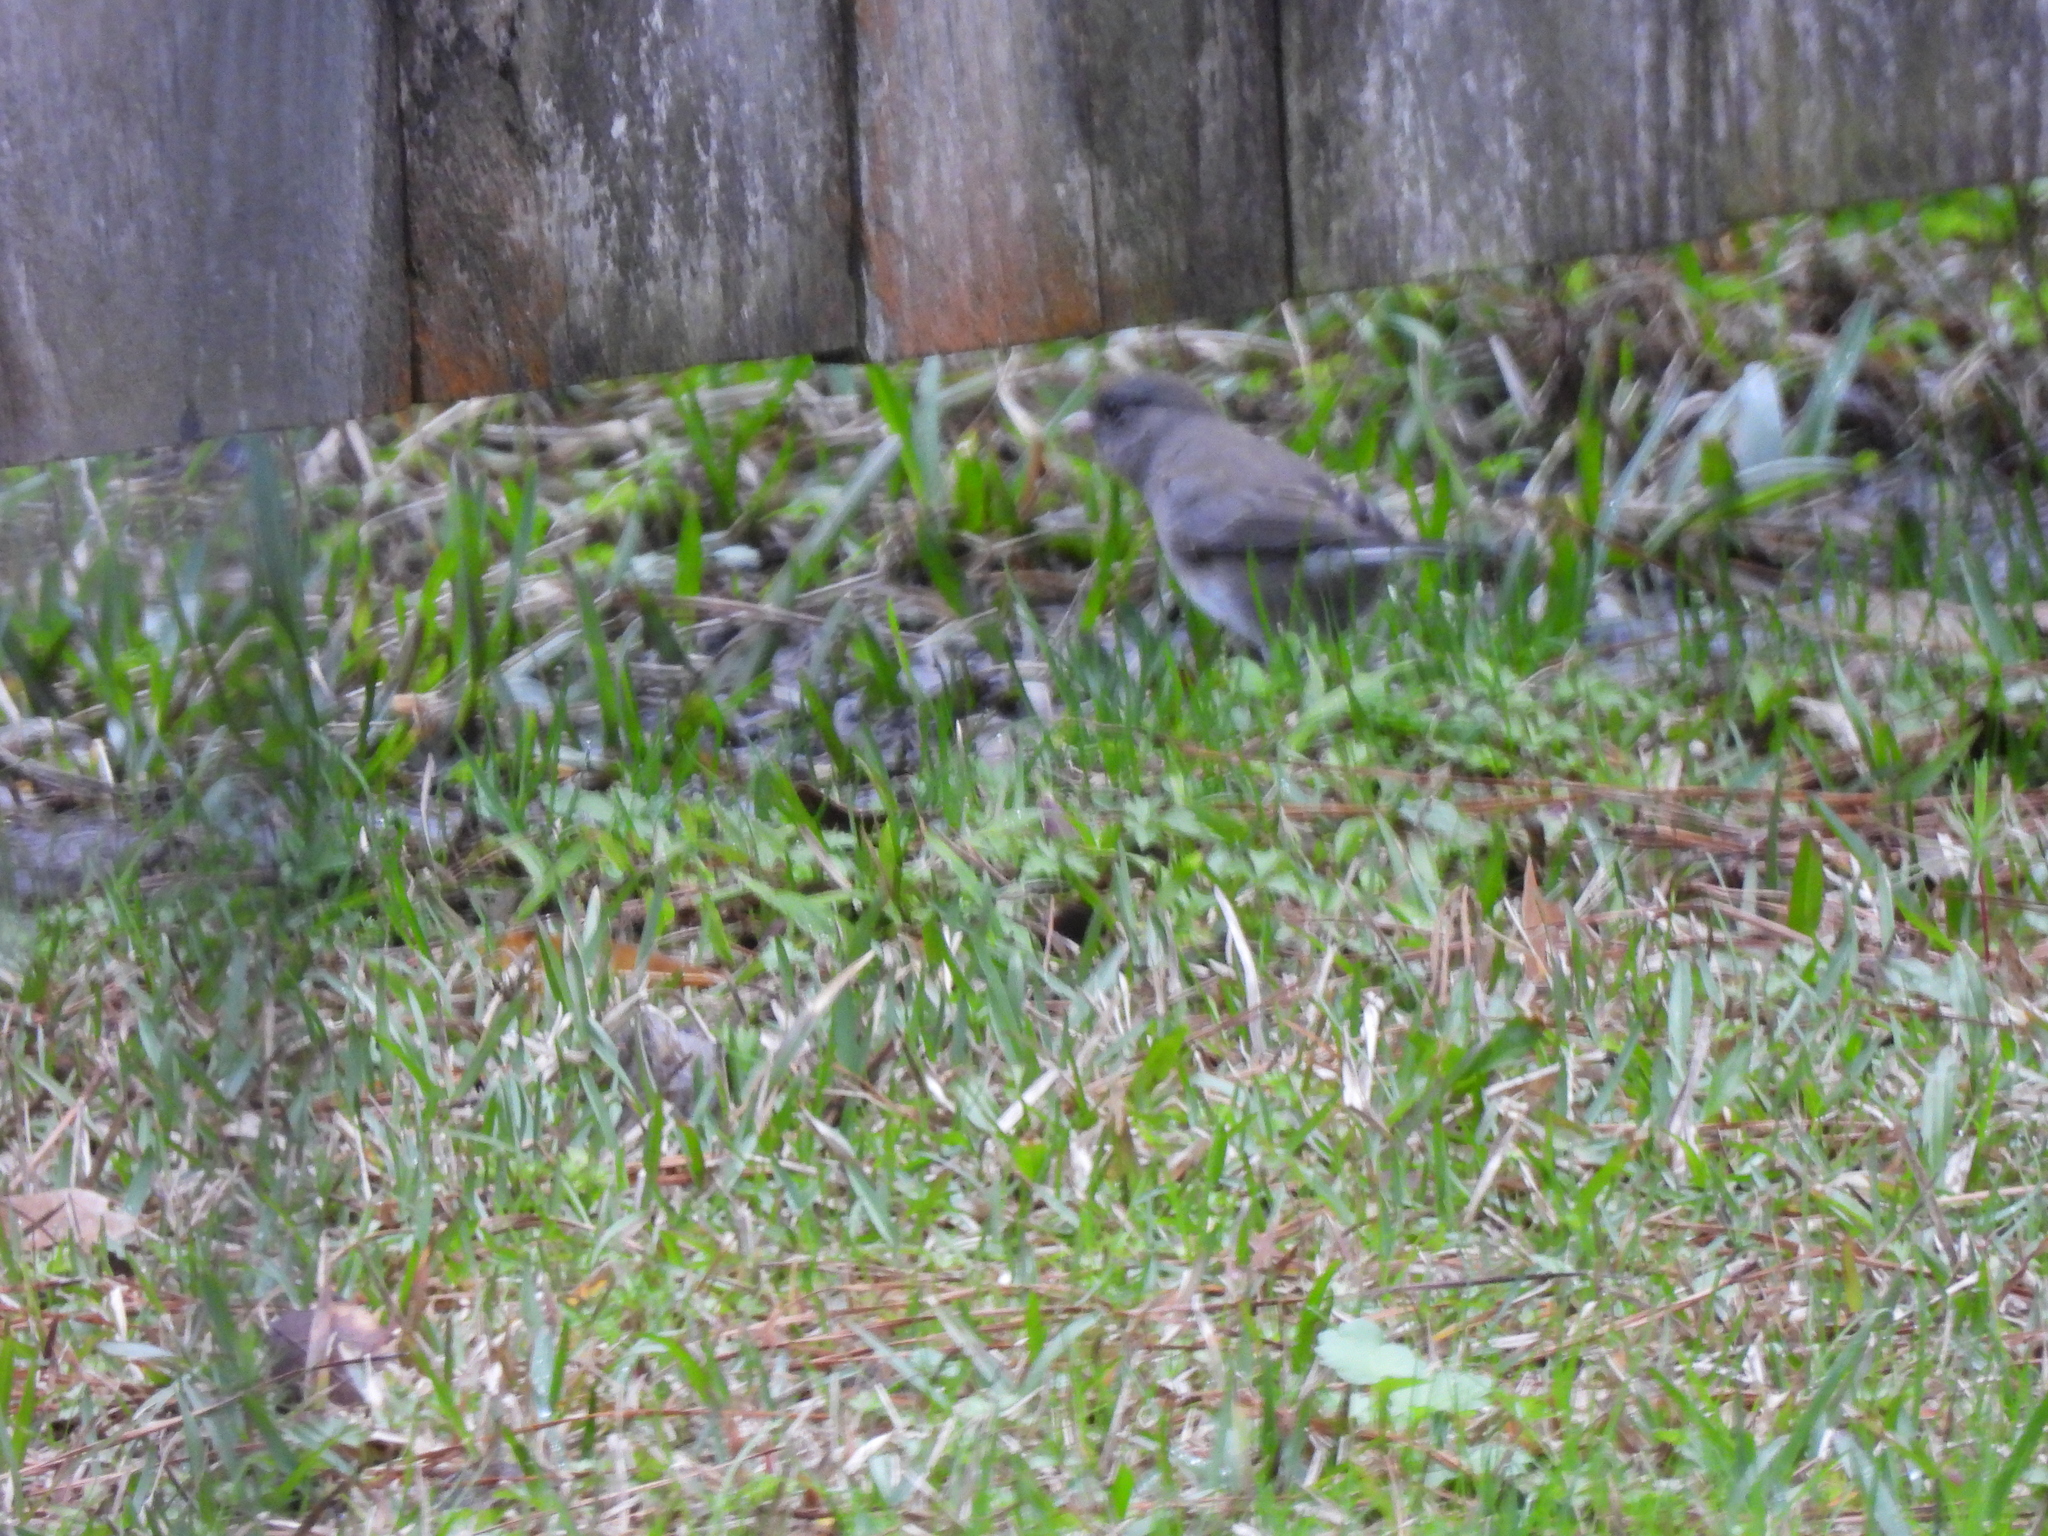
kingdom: Animalia
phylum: Chordata
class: Aves
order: Passeriformes
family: Passerellidae
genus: Junco
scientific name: Junco hyemalis
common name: Dark-eyed junco
